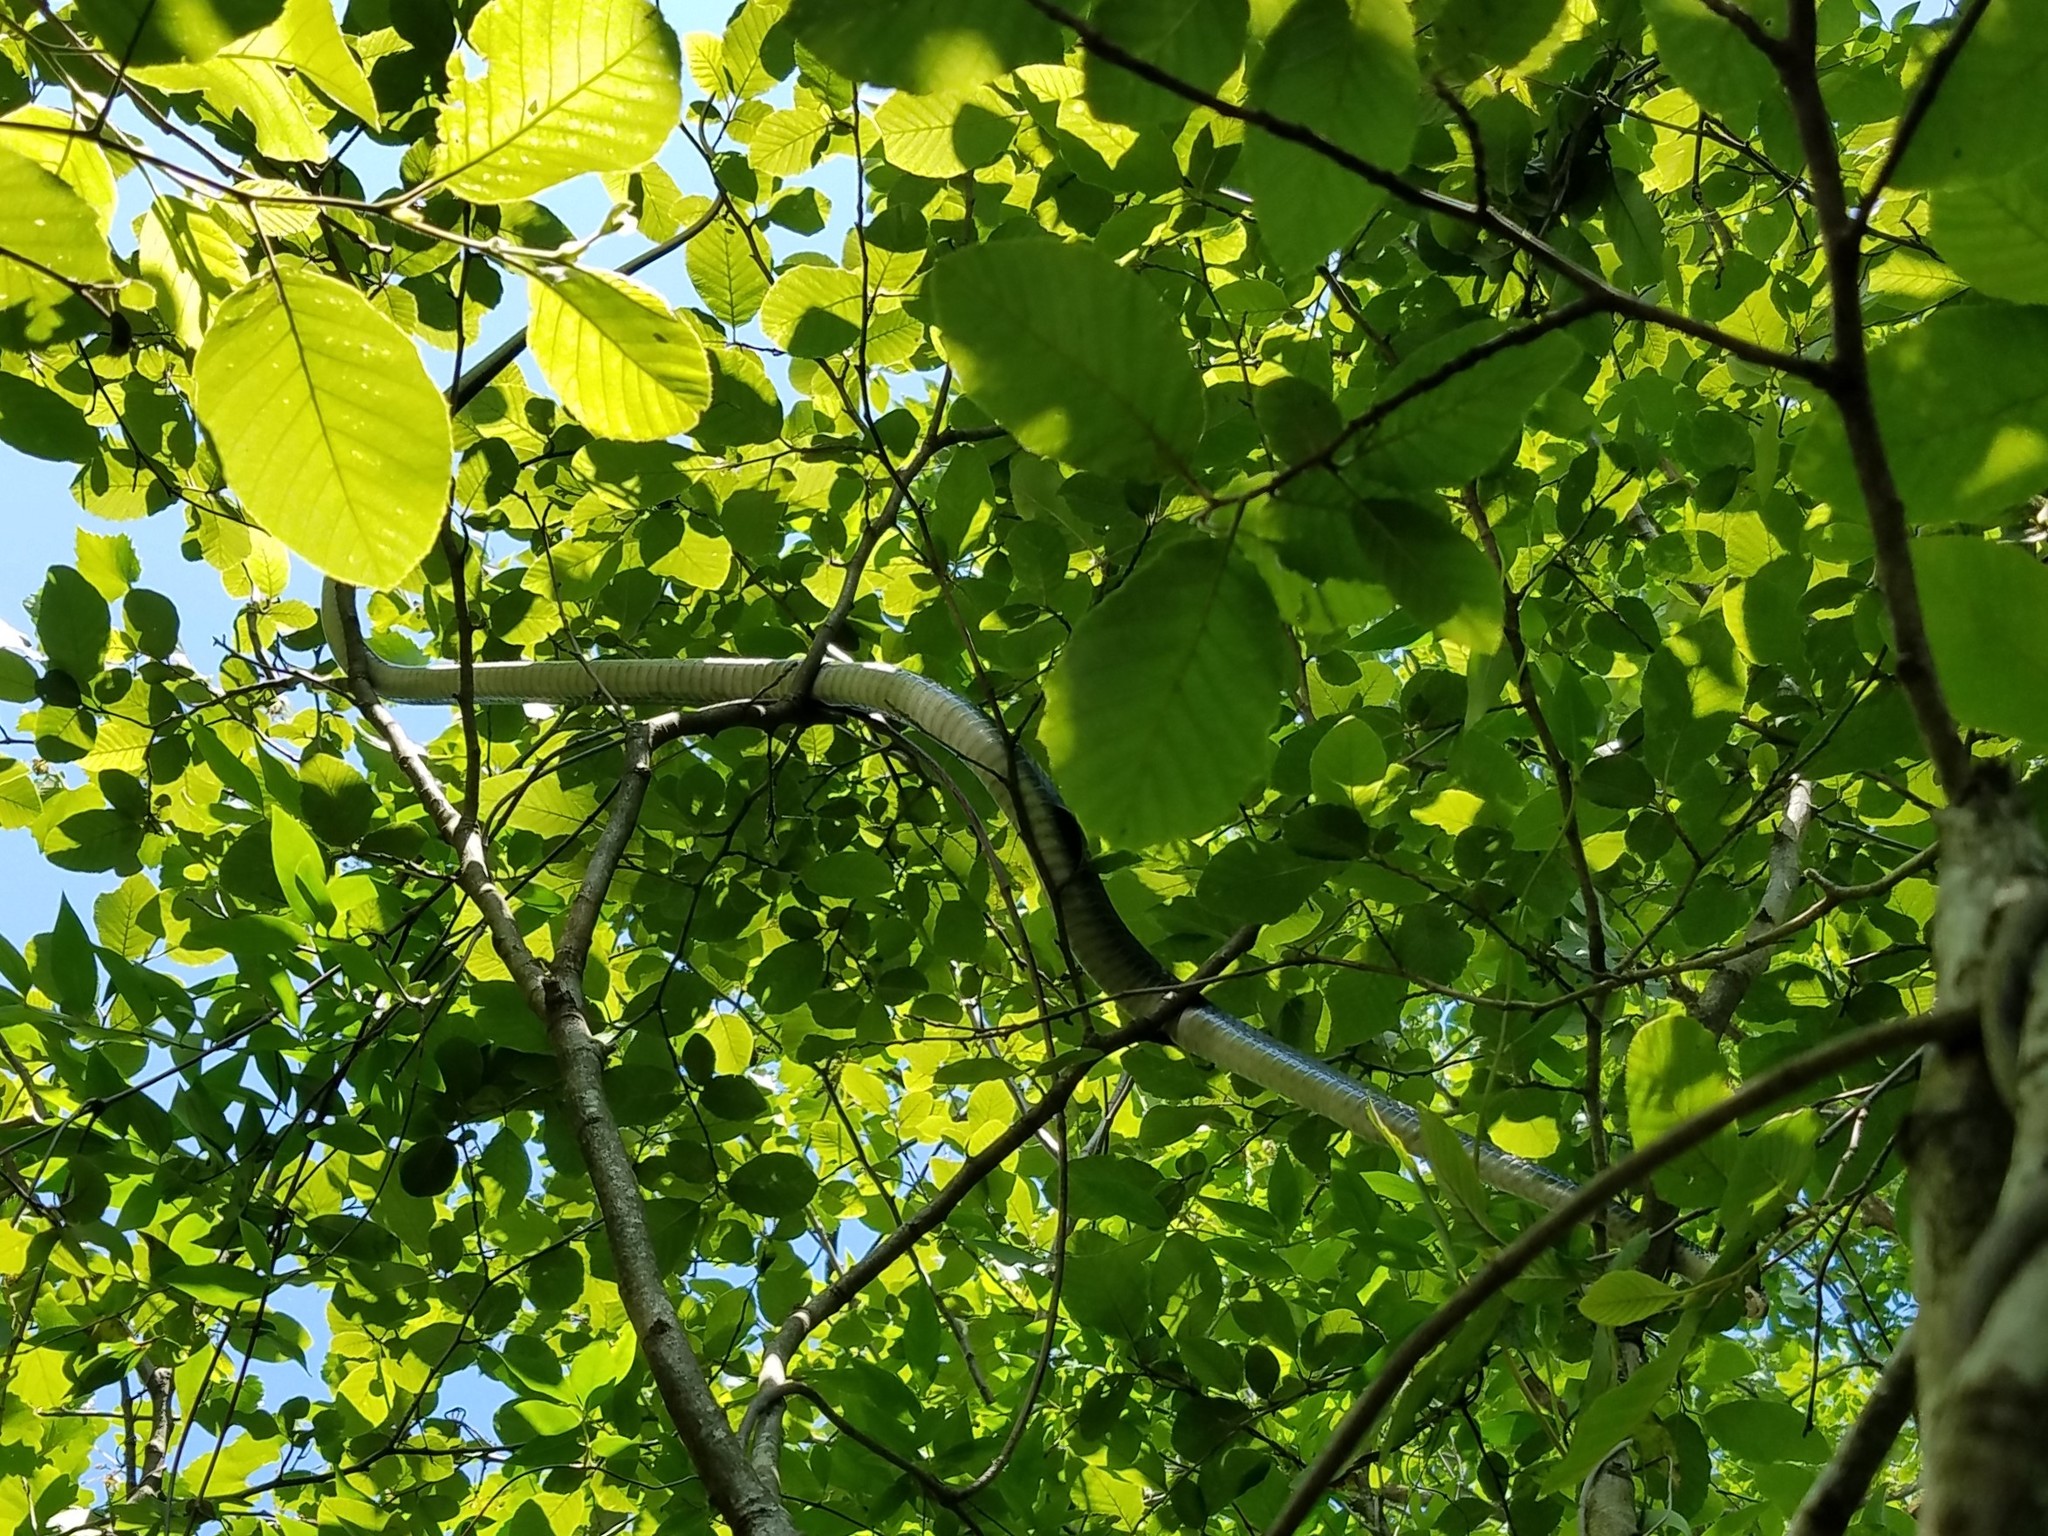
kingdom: Animalia
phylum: Chordata
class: Squamata
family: Colubridae
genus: Coluber
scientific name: Coluber constrictor
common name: Eastern racer
